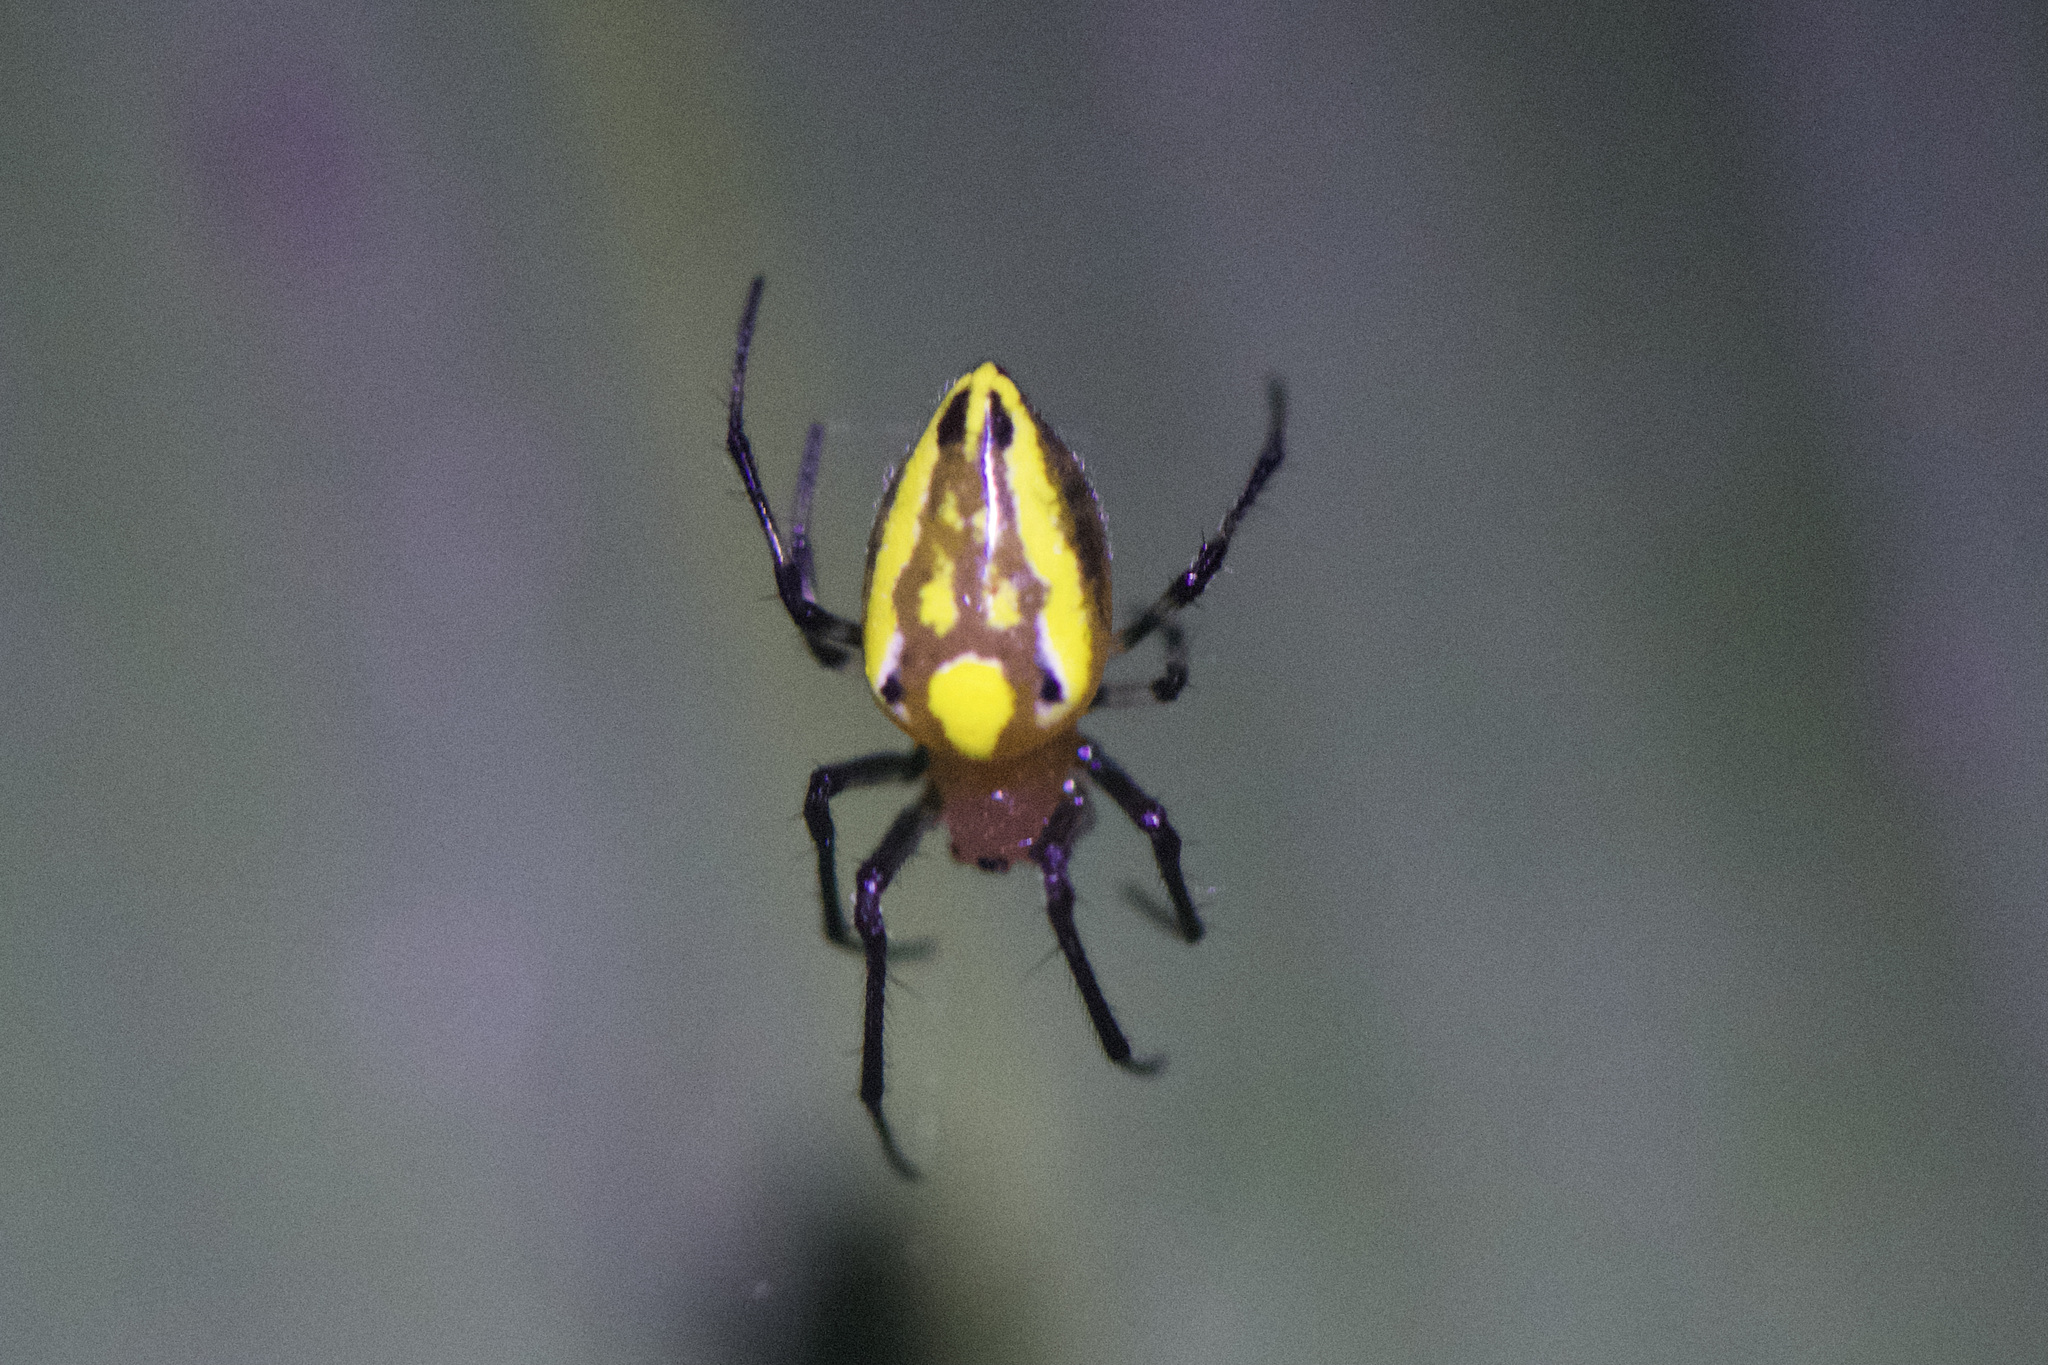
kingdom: Animalia
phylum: Arthropoda
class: Arachnida
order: Araneae
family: Araneidae
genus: Alpaida
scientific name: Alpaida tuonabo
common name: Orb weavers
